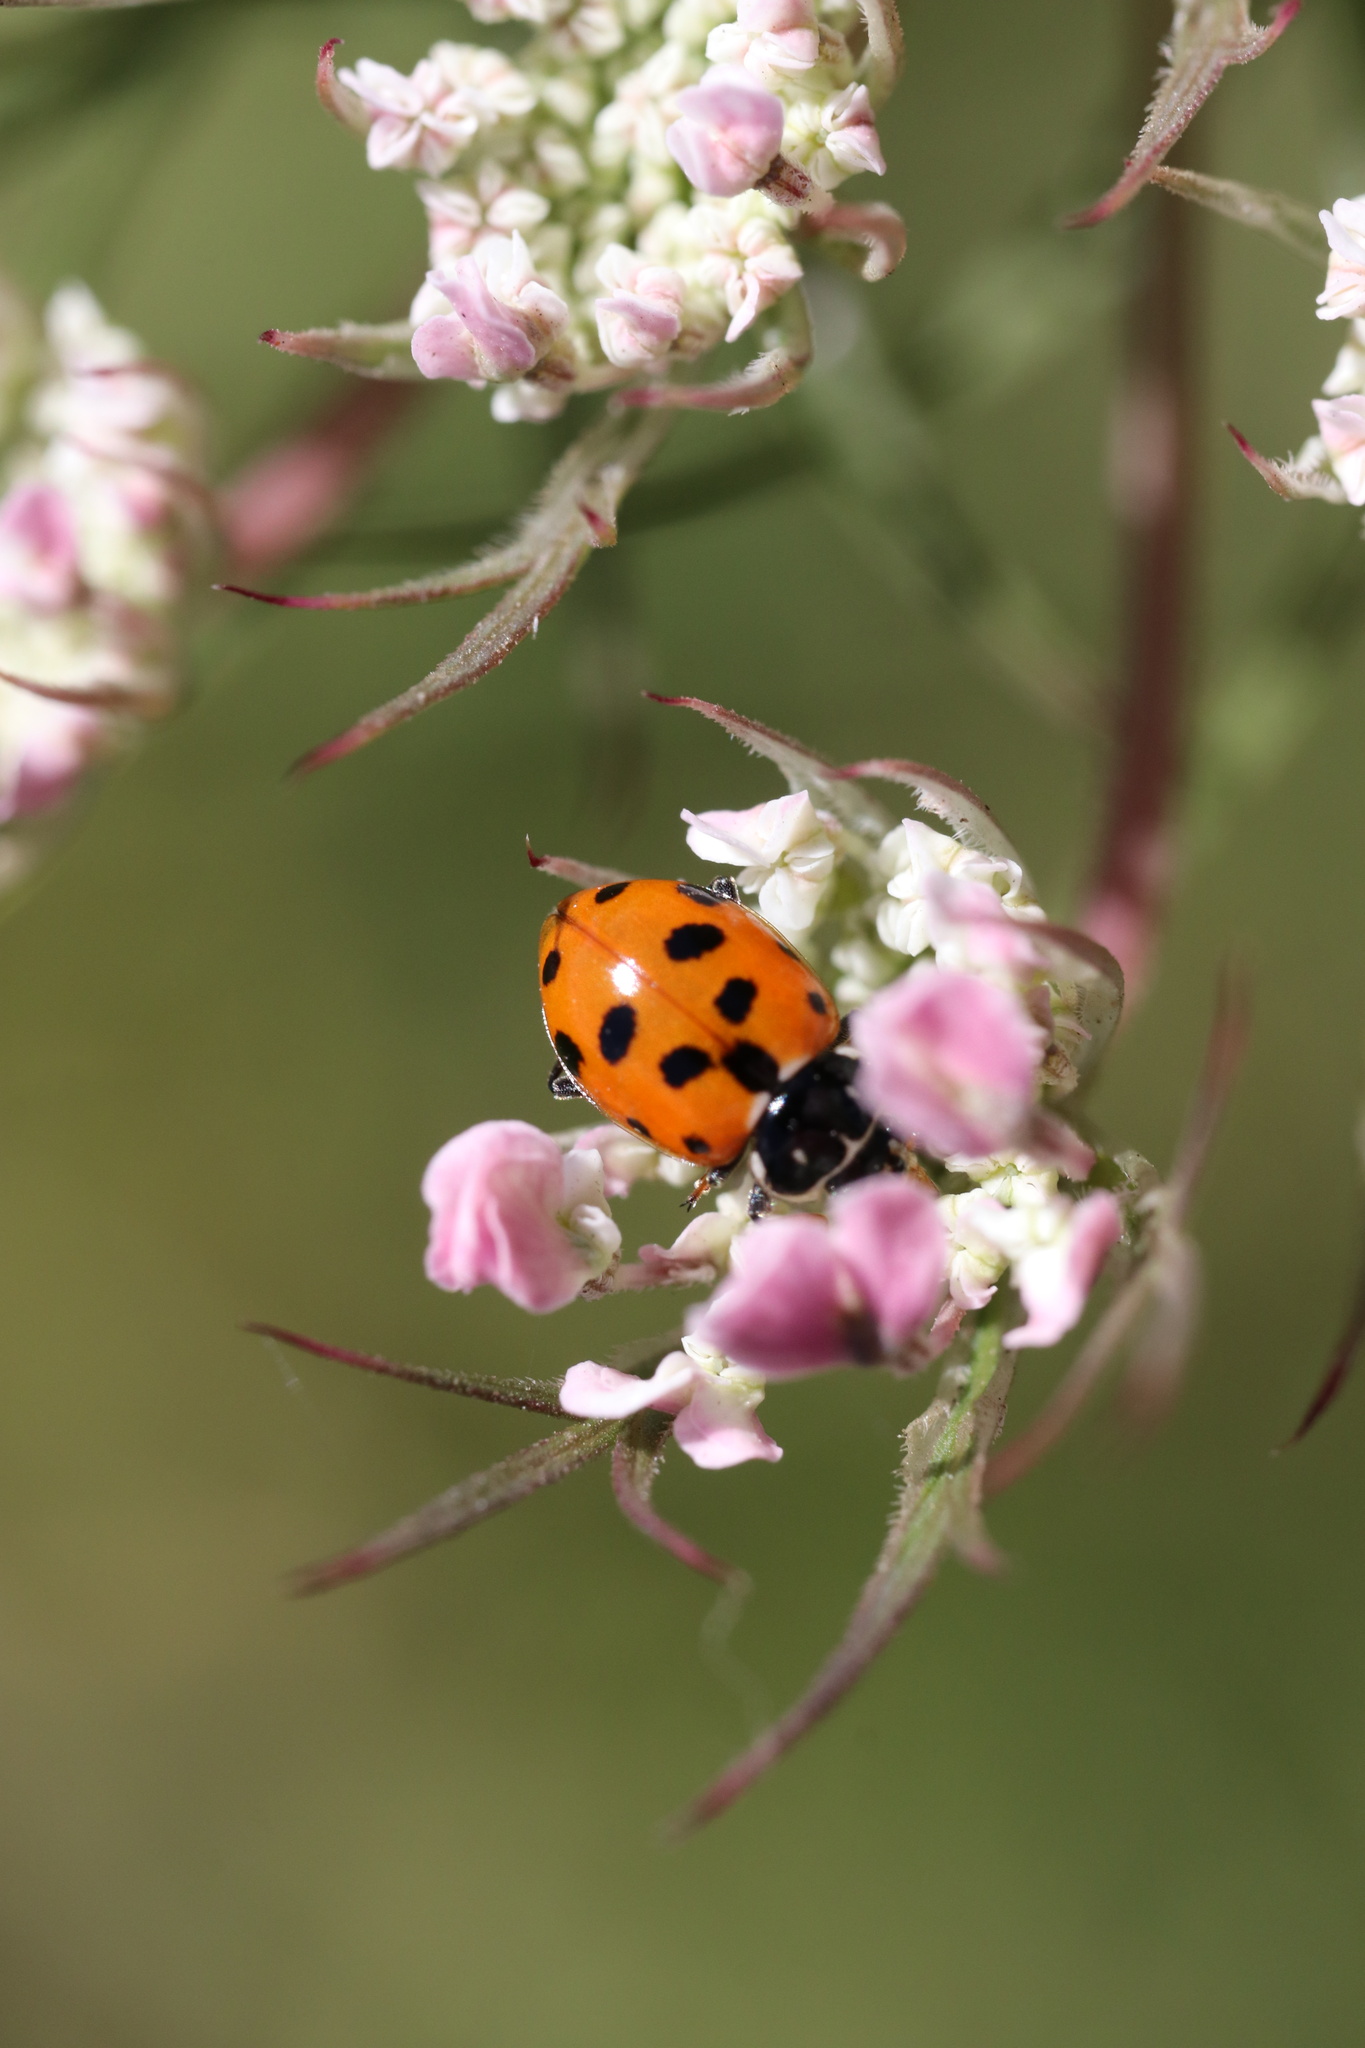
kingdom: Animalia
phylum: Arthropoda
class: Insecta
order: Coleoptera
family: Coccinellidae
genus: Hippodamia
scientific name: Hippodamia variegata
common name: Ladybird beetle
